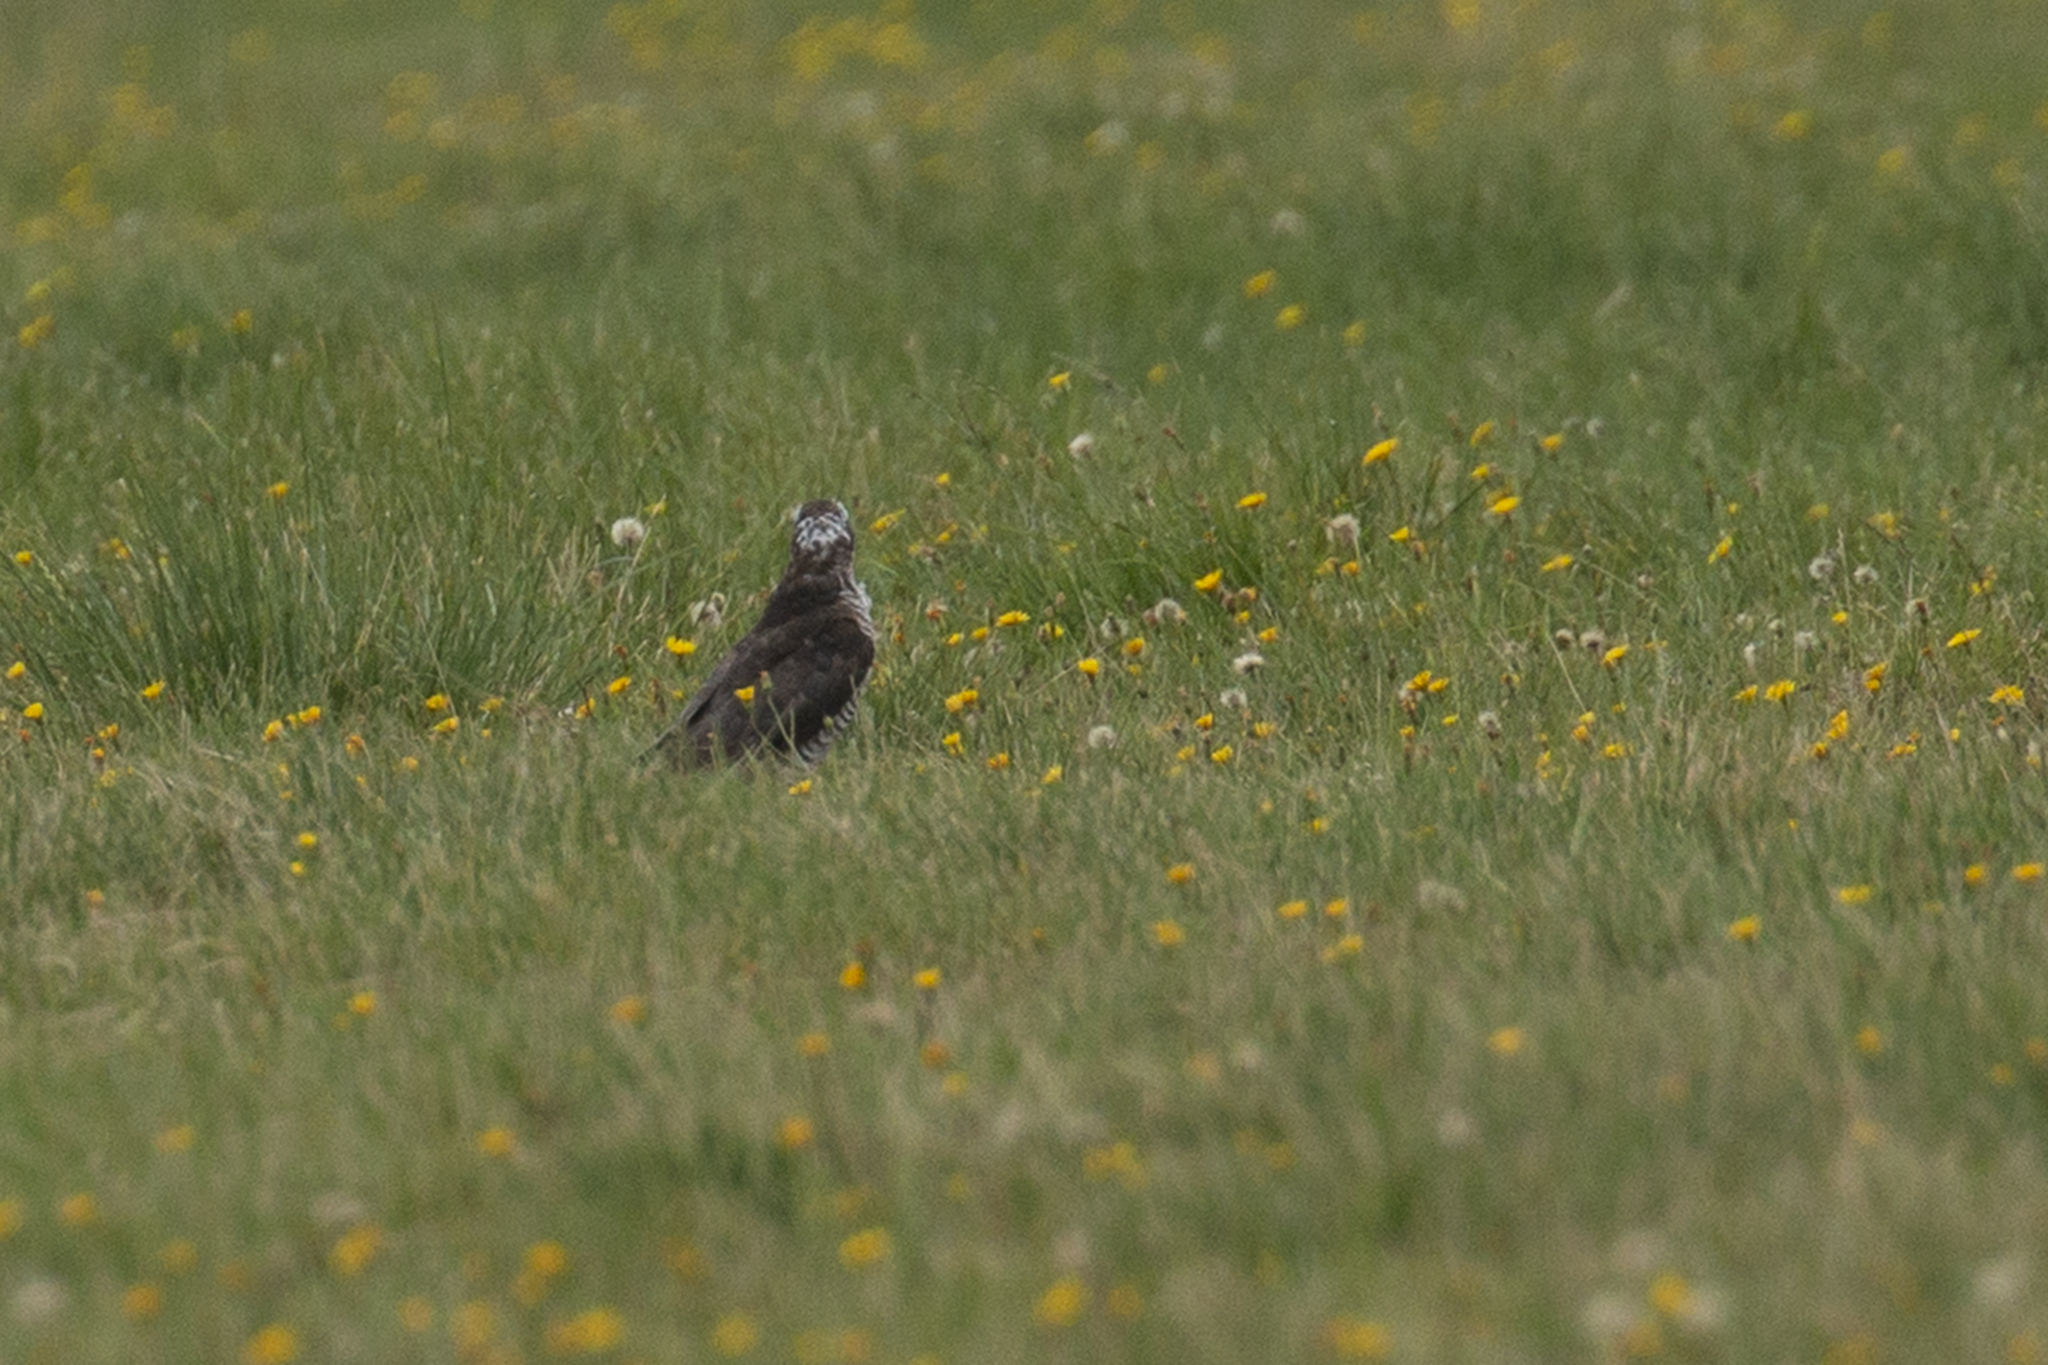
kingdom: Animalia
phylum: Chordata
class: Aves
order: Accipitriformes
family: Accipitridae
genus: Accipiter
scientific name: Accipiter nisus
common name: Eurasian sparrowhawk
